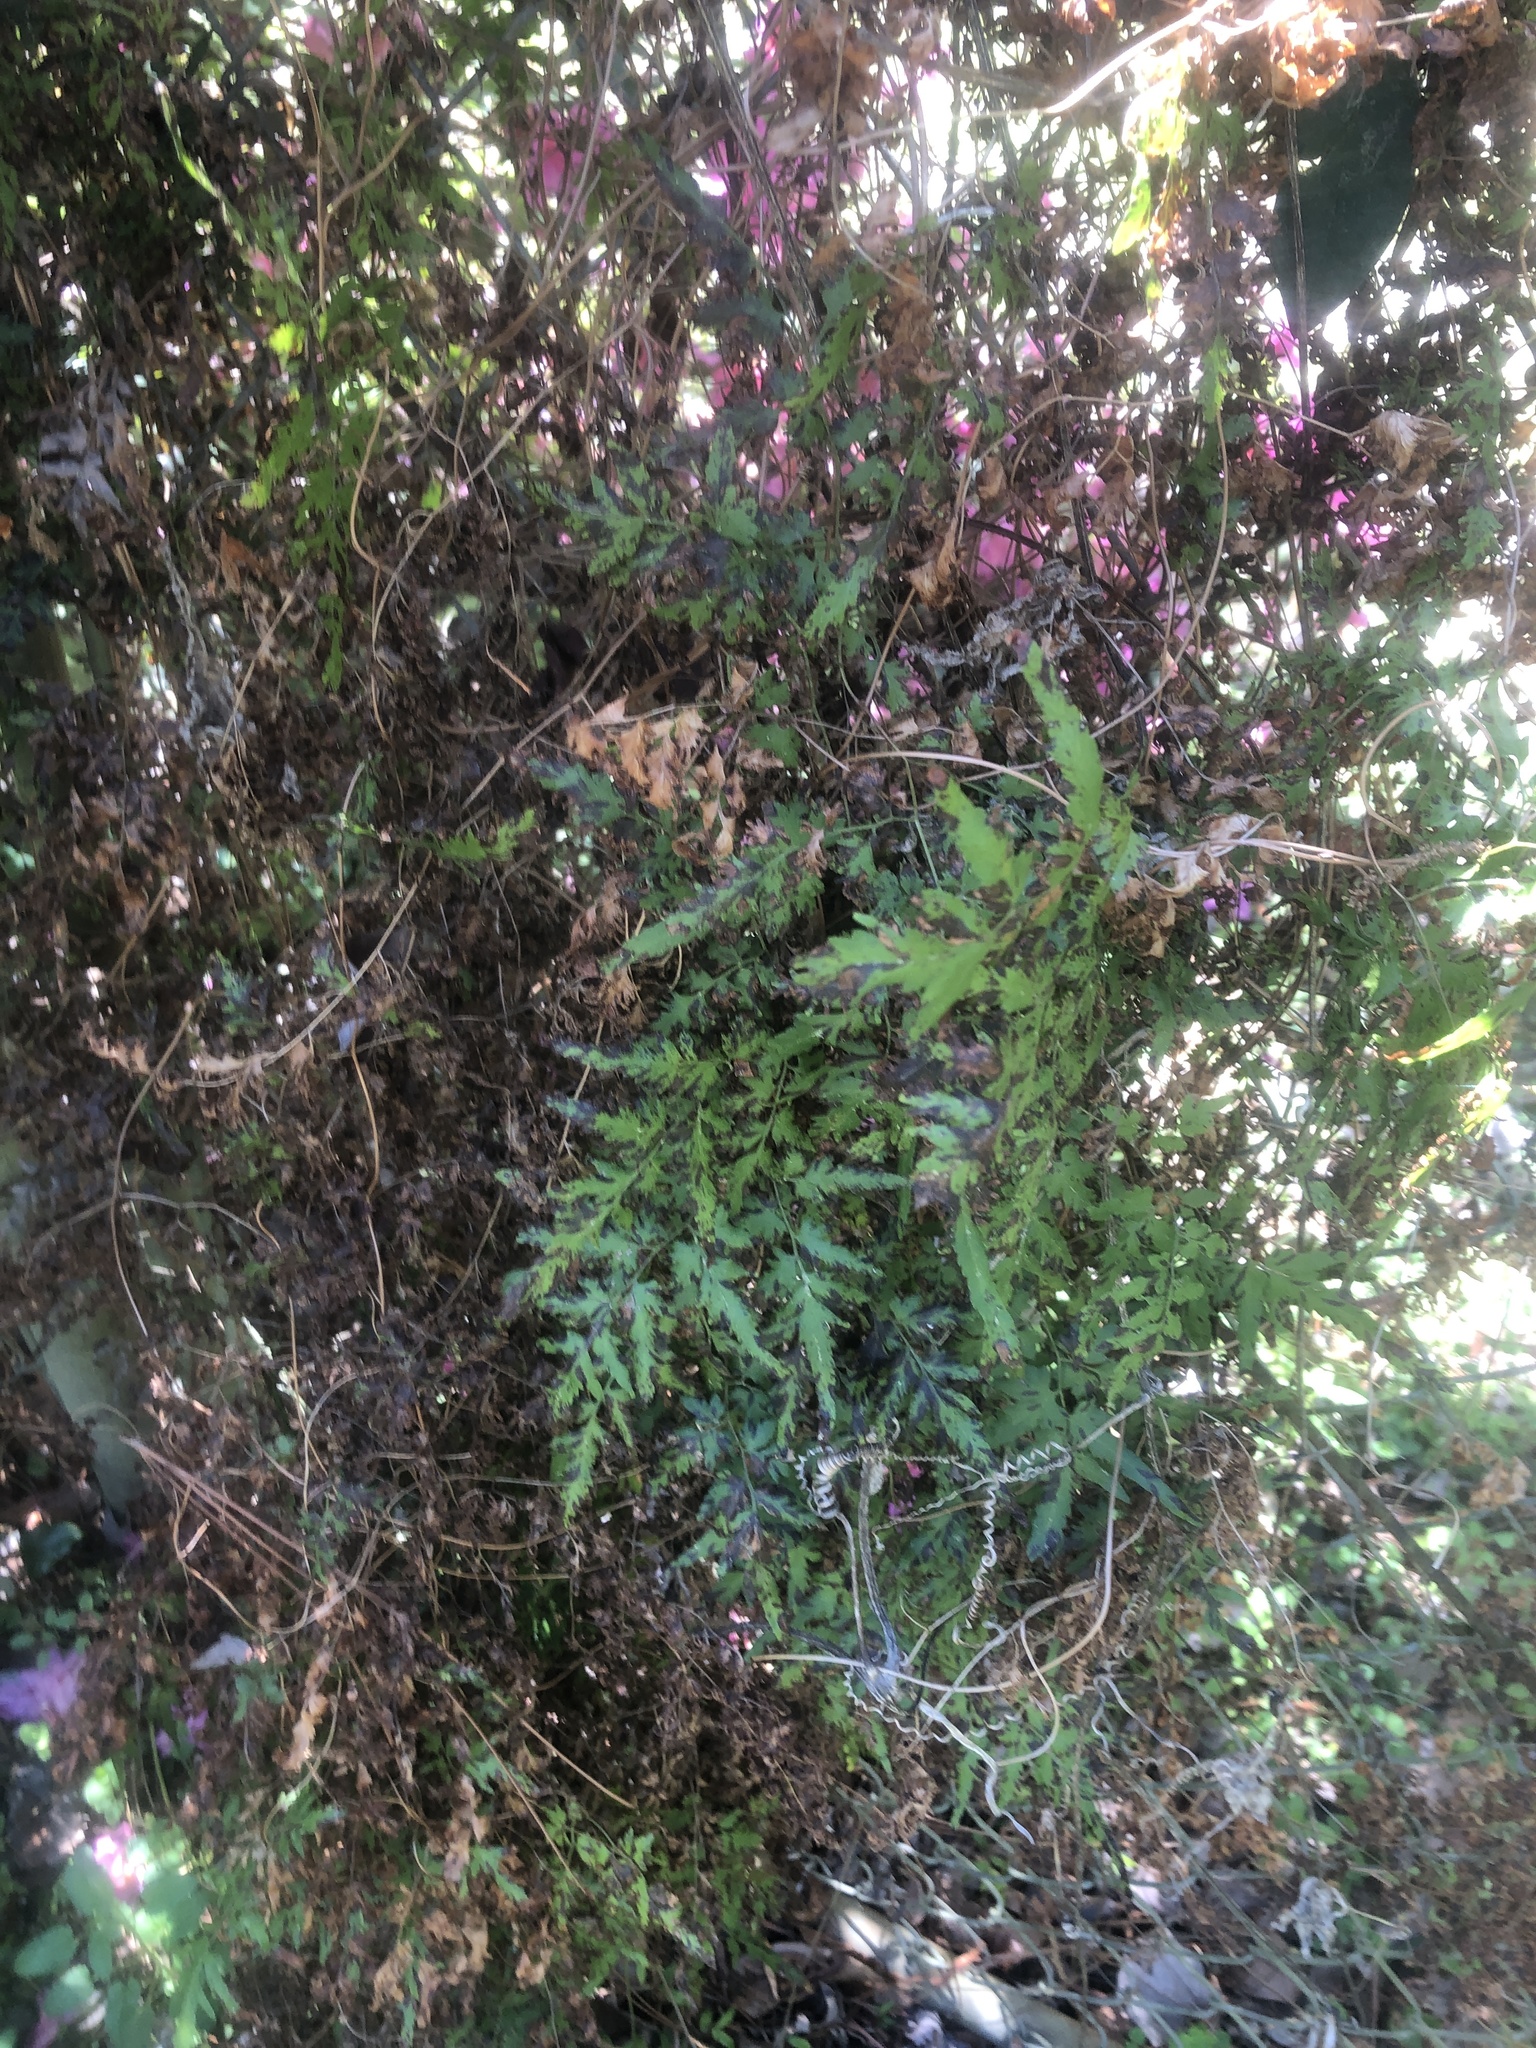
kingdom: Plantae
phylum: Tracheophyta
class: Polypodiopsida
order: Schizaeales
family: Lygodiaceae
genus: Lygodium
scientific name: Lygodium japonicum
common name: Japanese climbing fern
